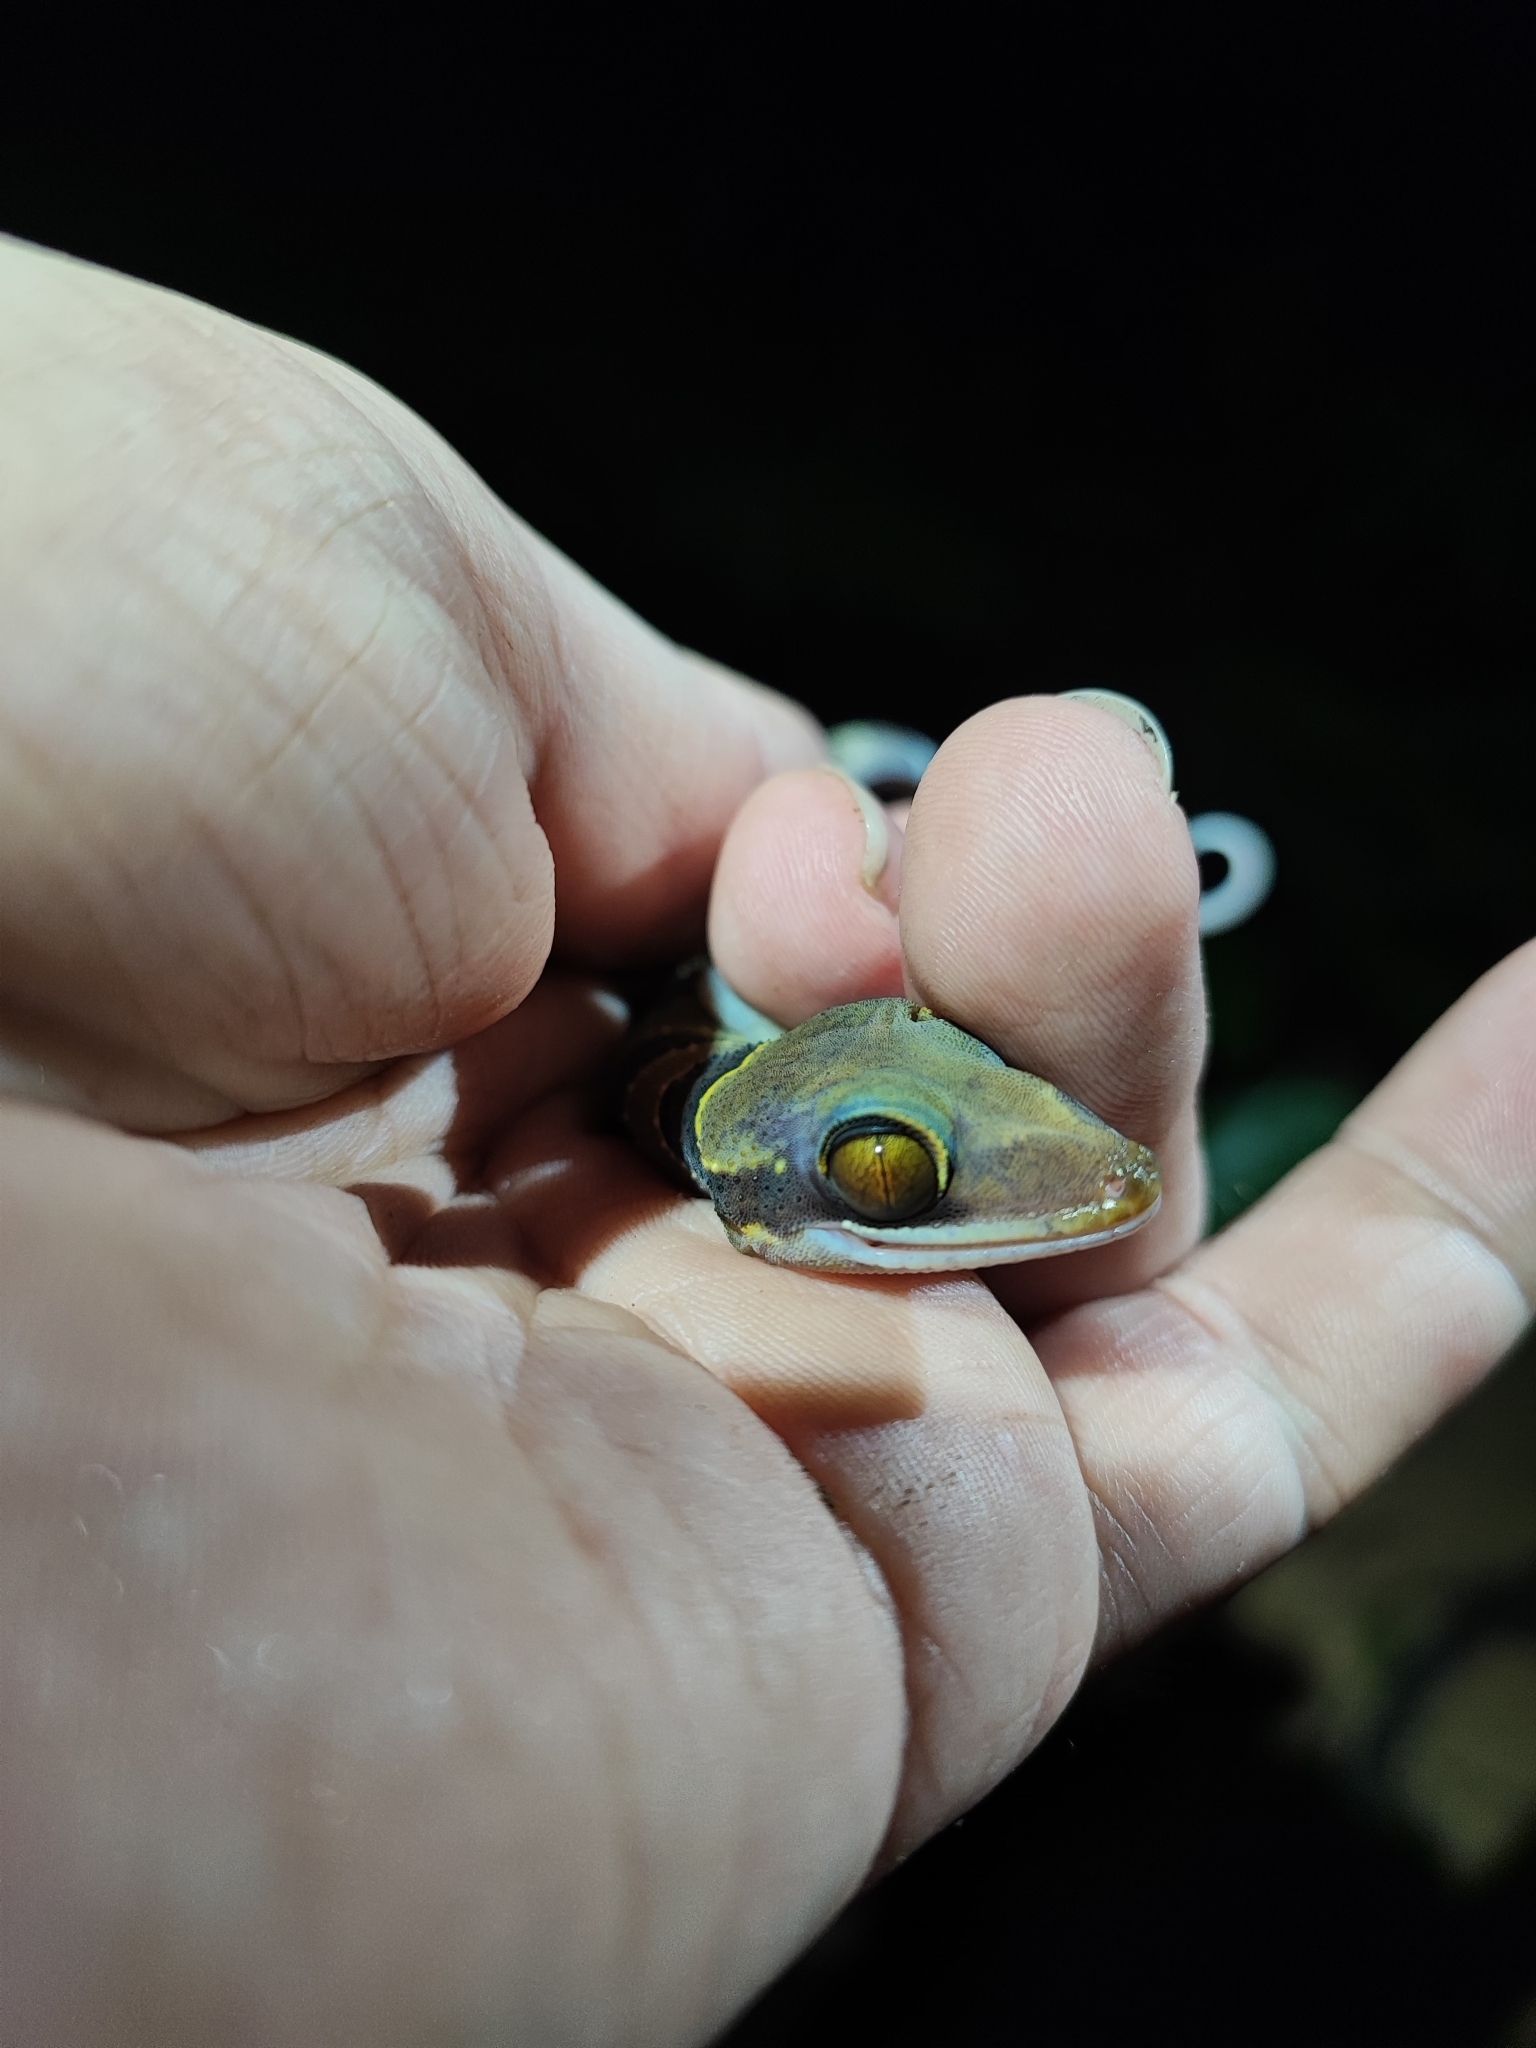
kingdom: Animalia
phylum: Chordata
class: Squamata
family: Gekkonidae
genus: Cyrtodactylus
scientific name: Cyrtodactylus lekaguli
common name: Tuk-kai boonsong bent-toed gecko
